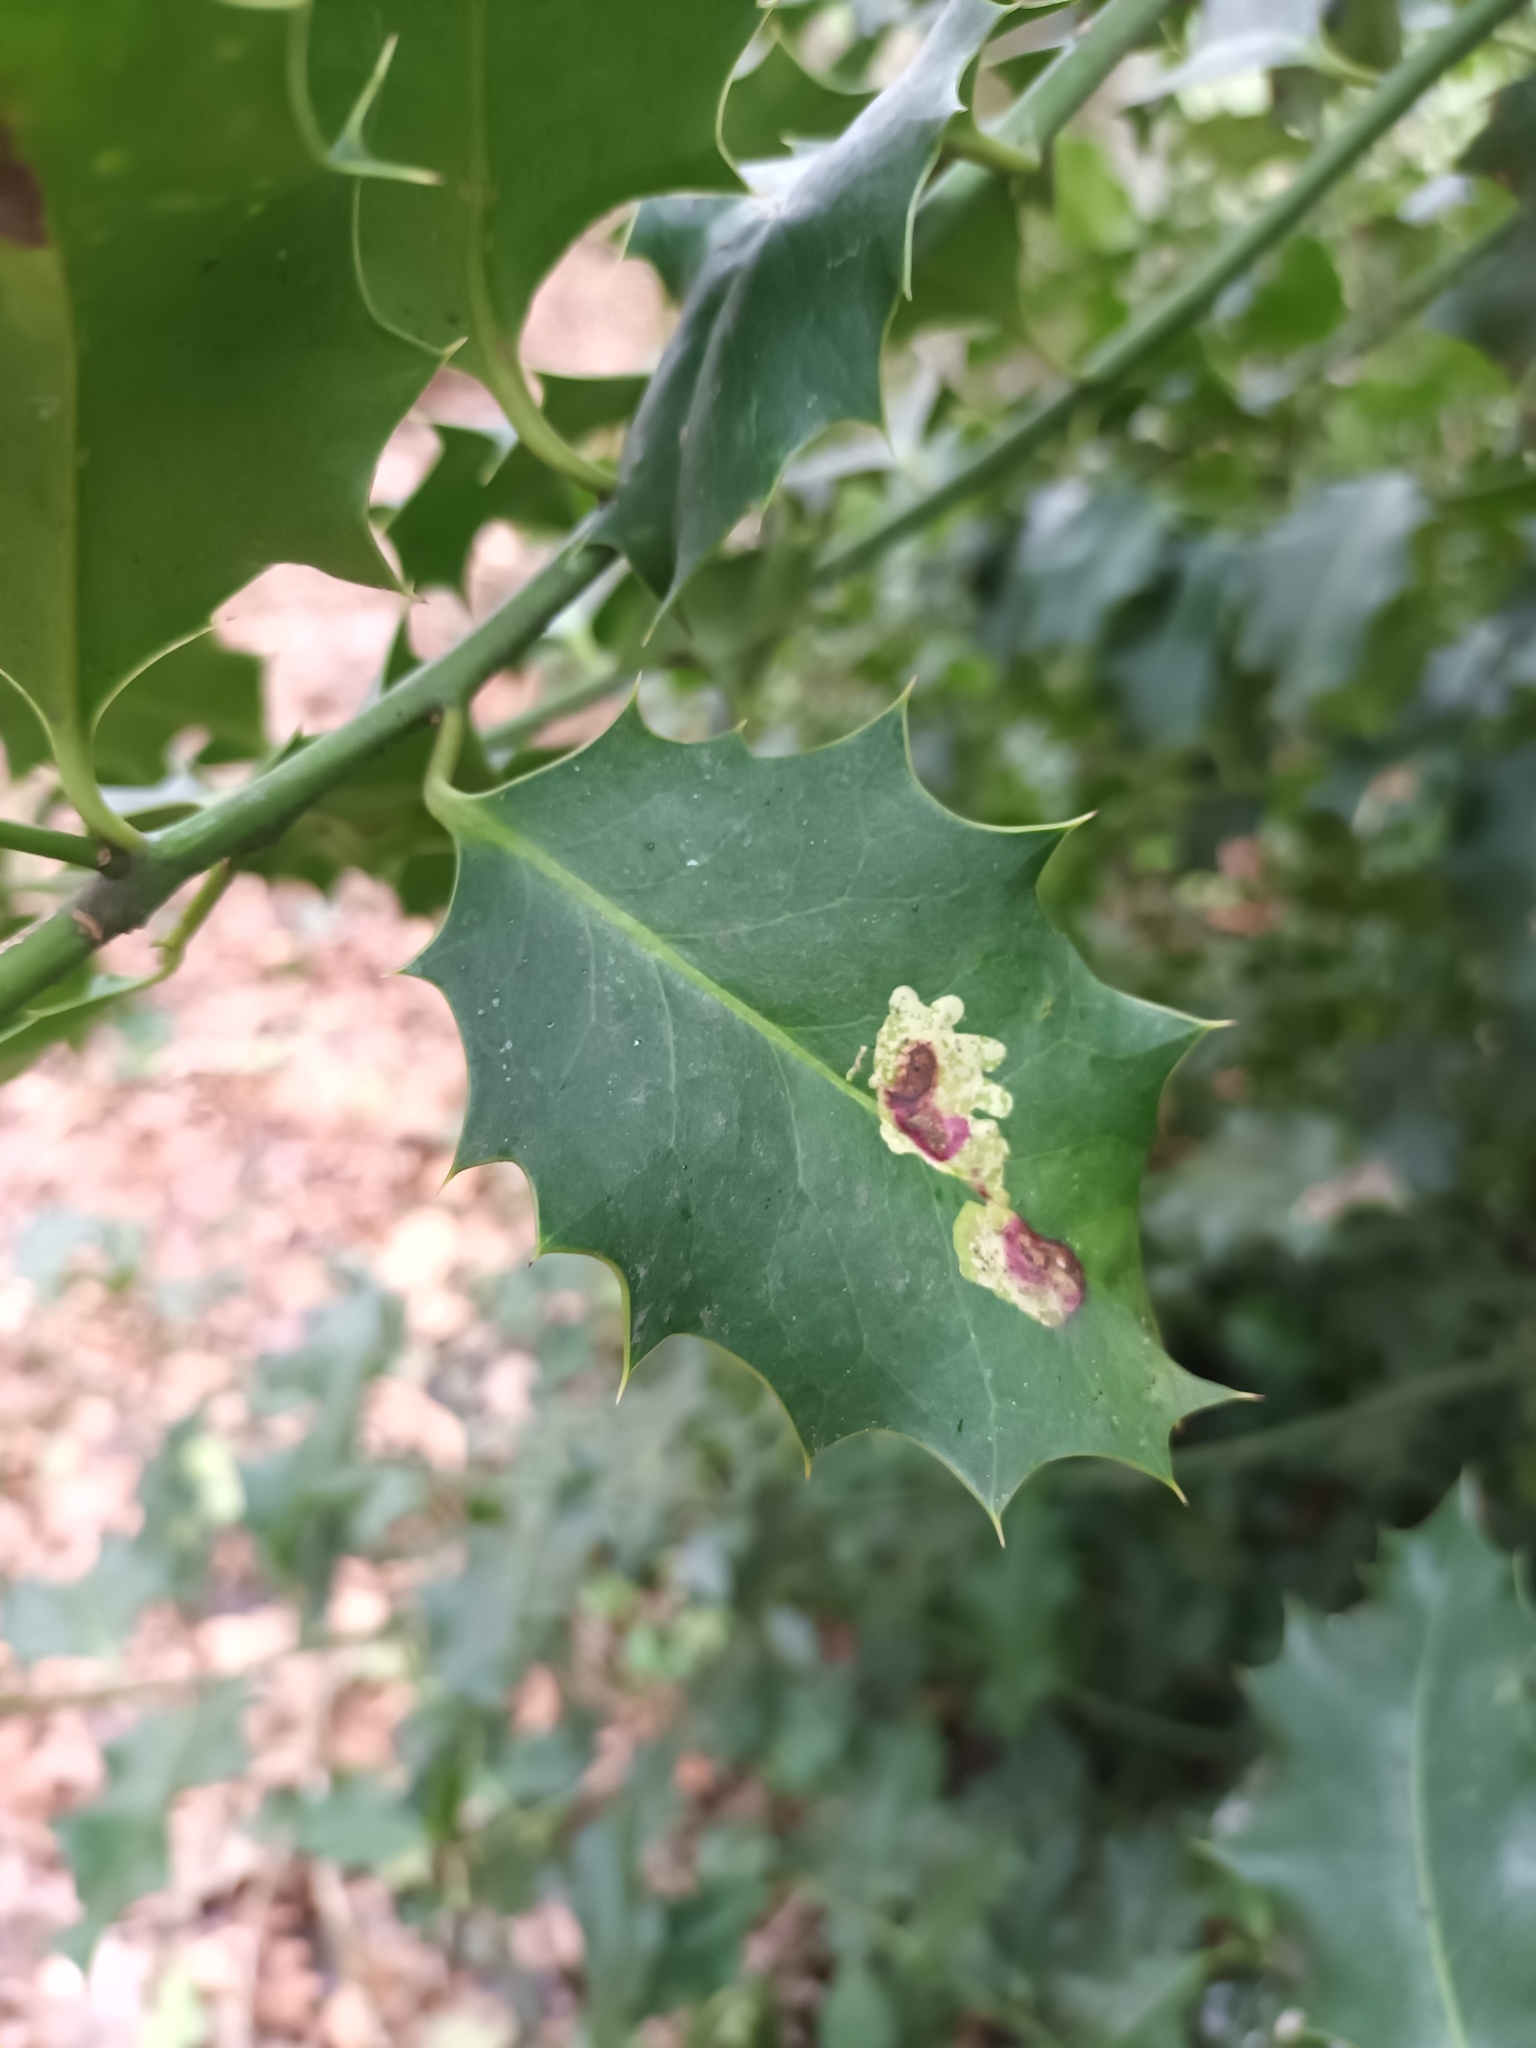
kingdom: Animalia
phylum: Arthropoda
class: Insecta
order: Diptera
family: Agromyzidae
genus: Phytomyza
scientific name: Phytomyza ilicis
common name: Holly leafminer
